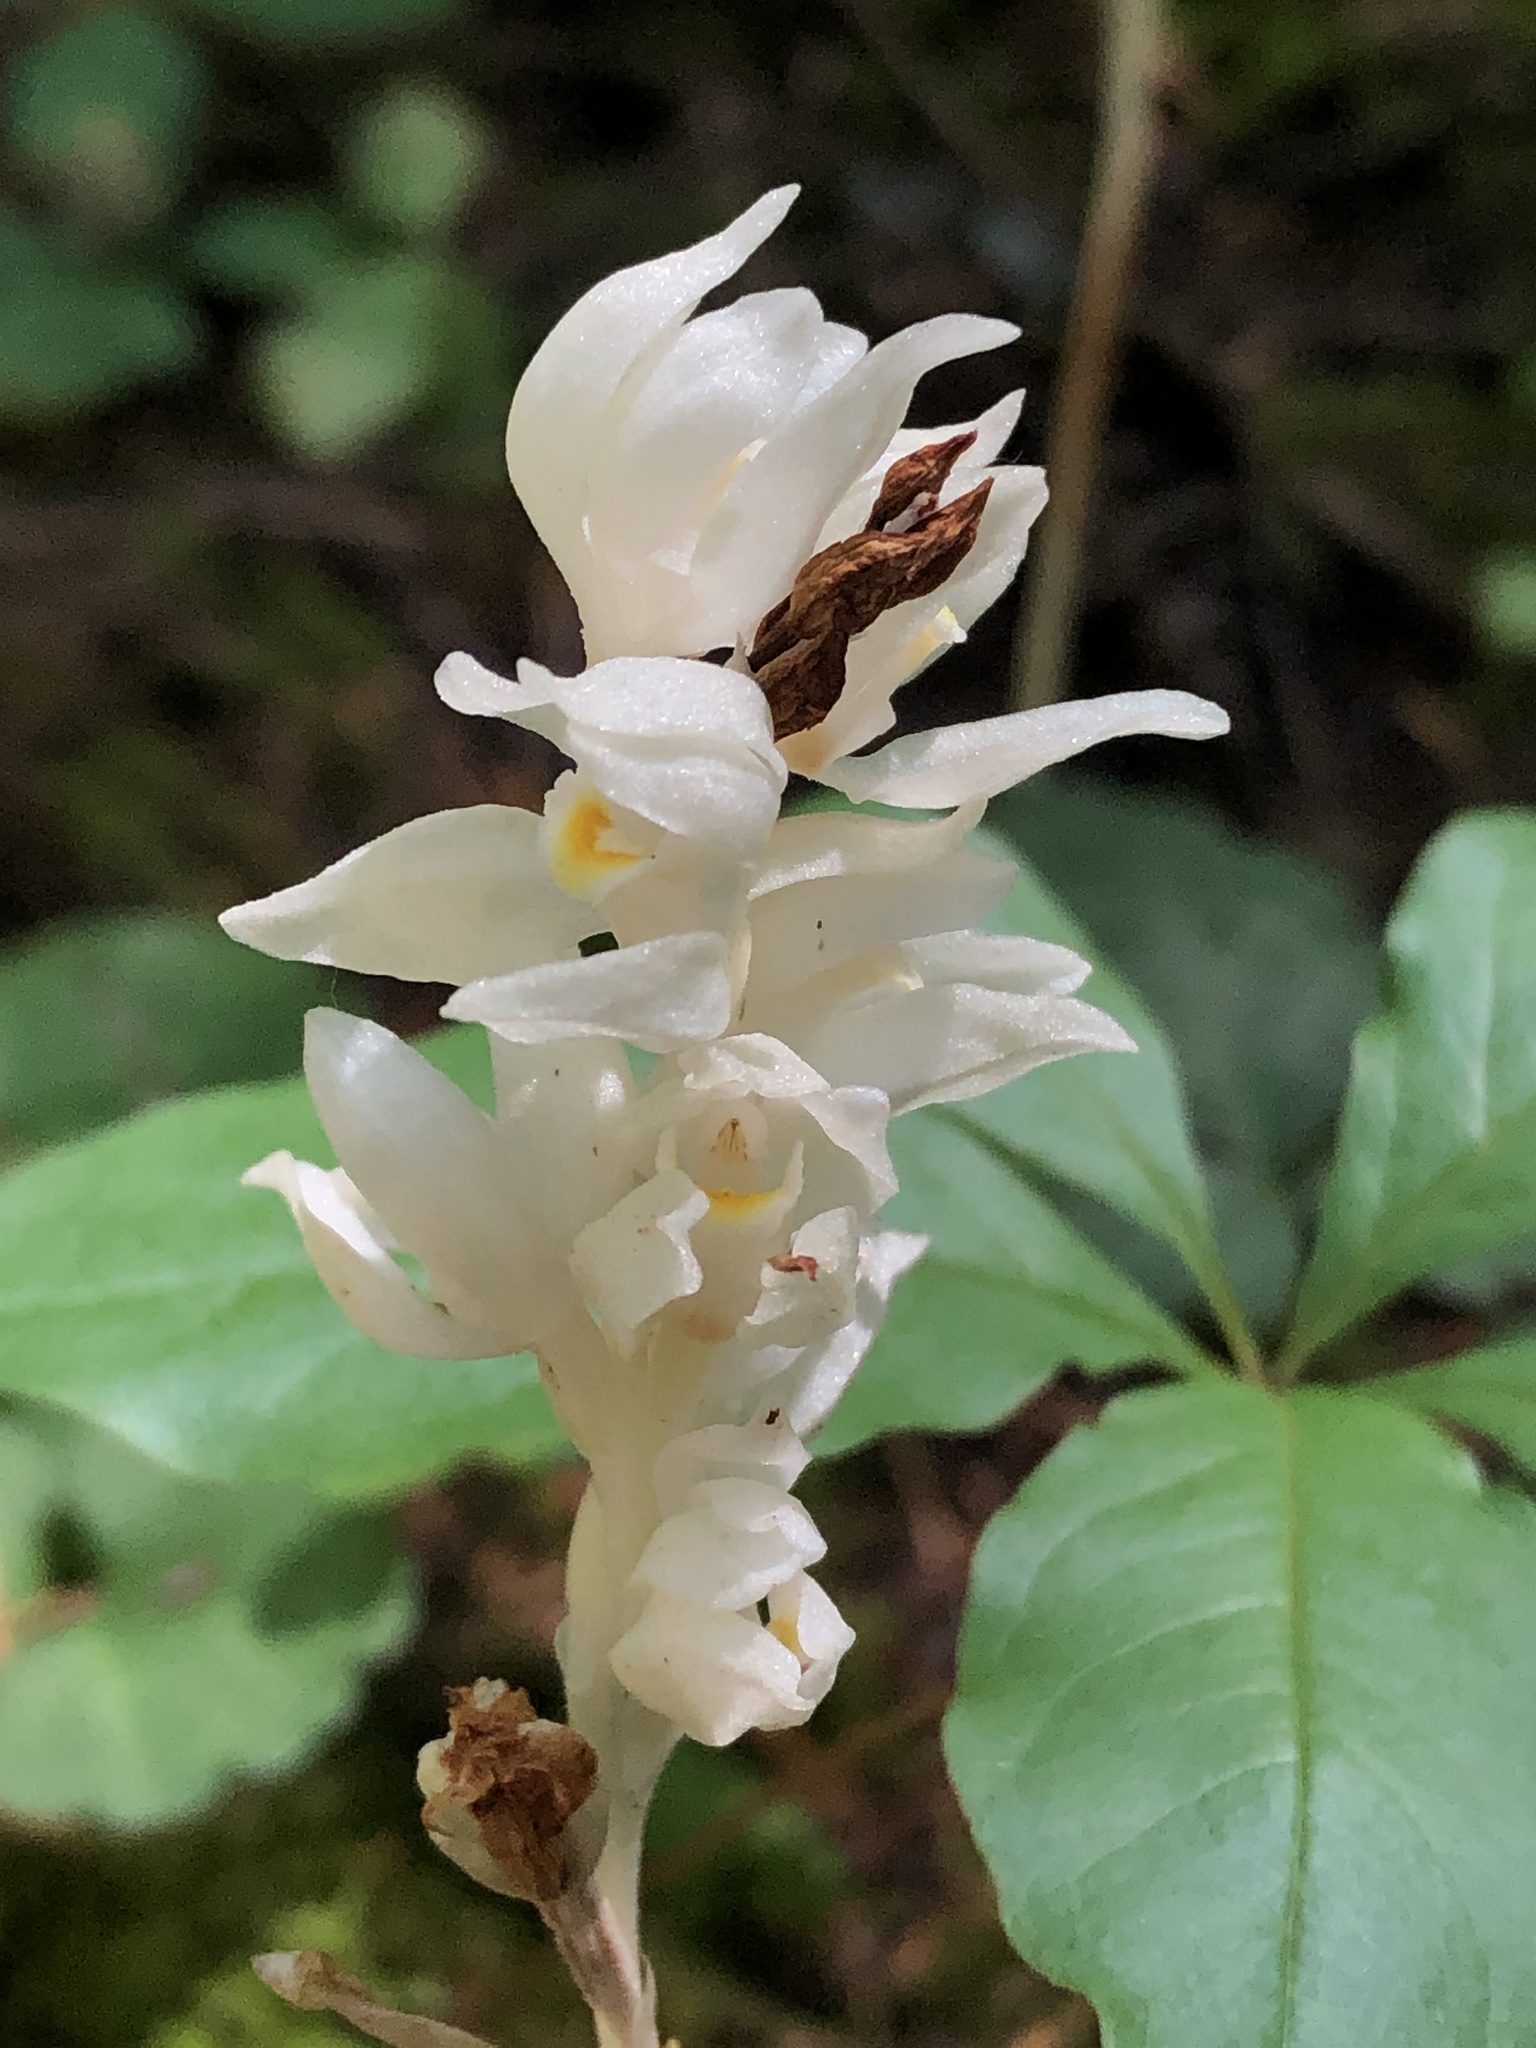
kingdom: Plantae
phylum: Tracheophyta
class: Liliopsida
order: Asparagales
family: Orchidaceae
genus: Cephalanthera
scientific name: Cephalanthera austiniae
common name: Phantom orchid
